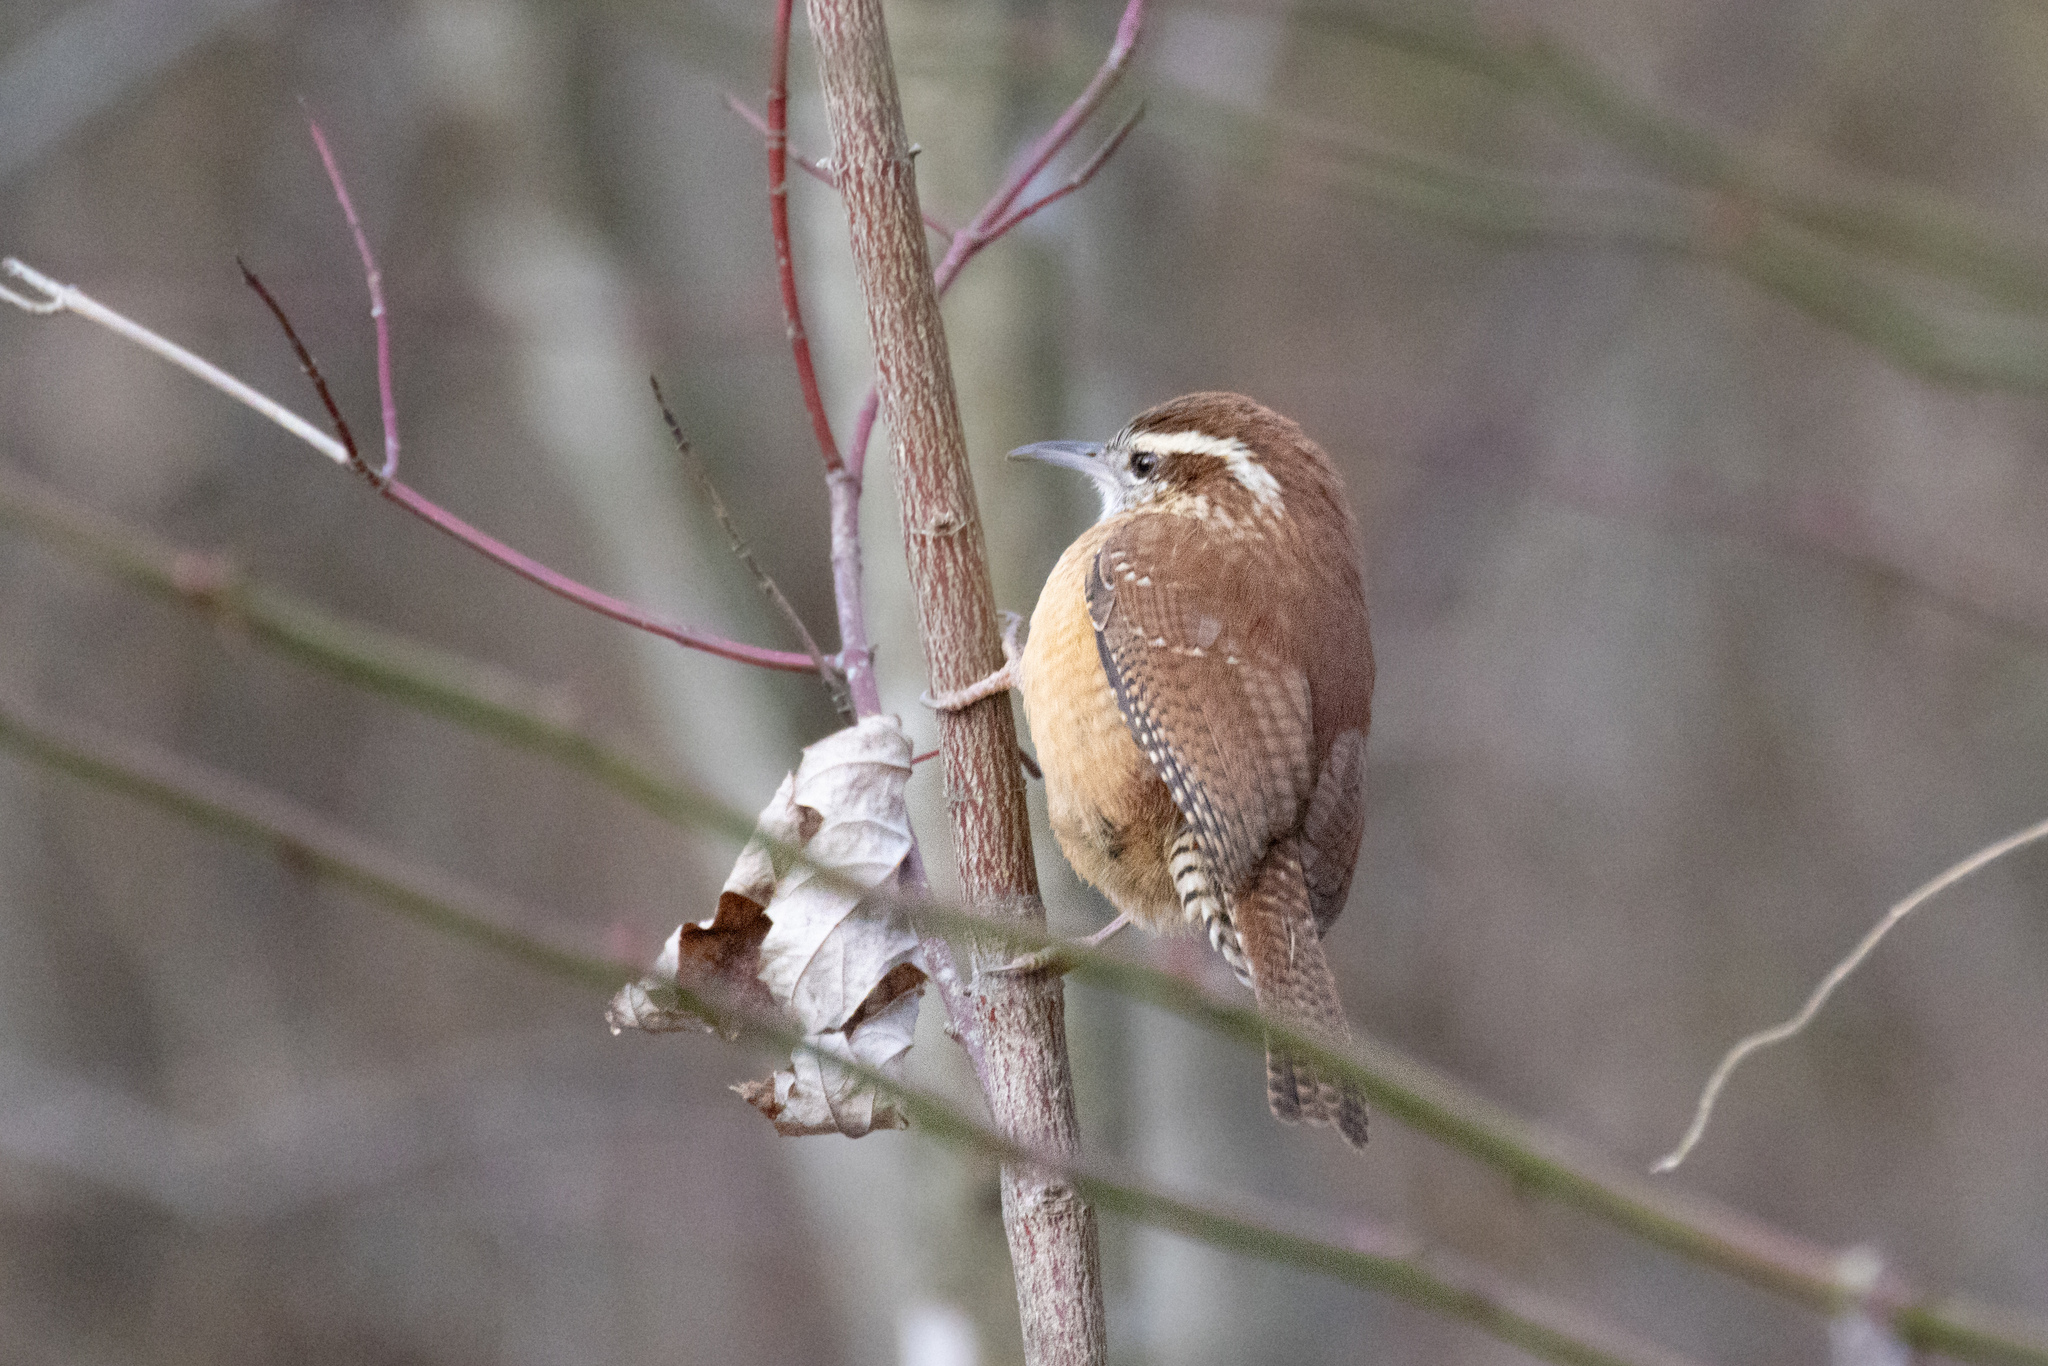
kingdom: Animalia
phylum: Chordata
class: Aves
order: Passeriformes
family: Troglodytidae
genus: Thryothorus
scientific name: Thryothorus ludovicianus
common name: Carolina wren
